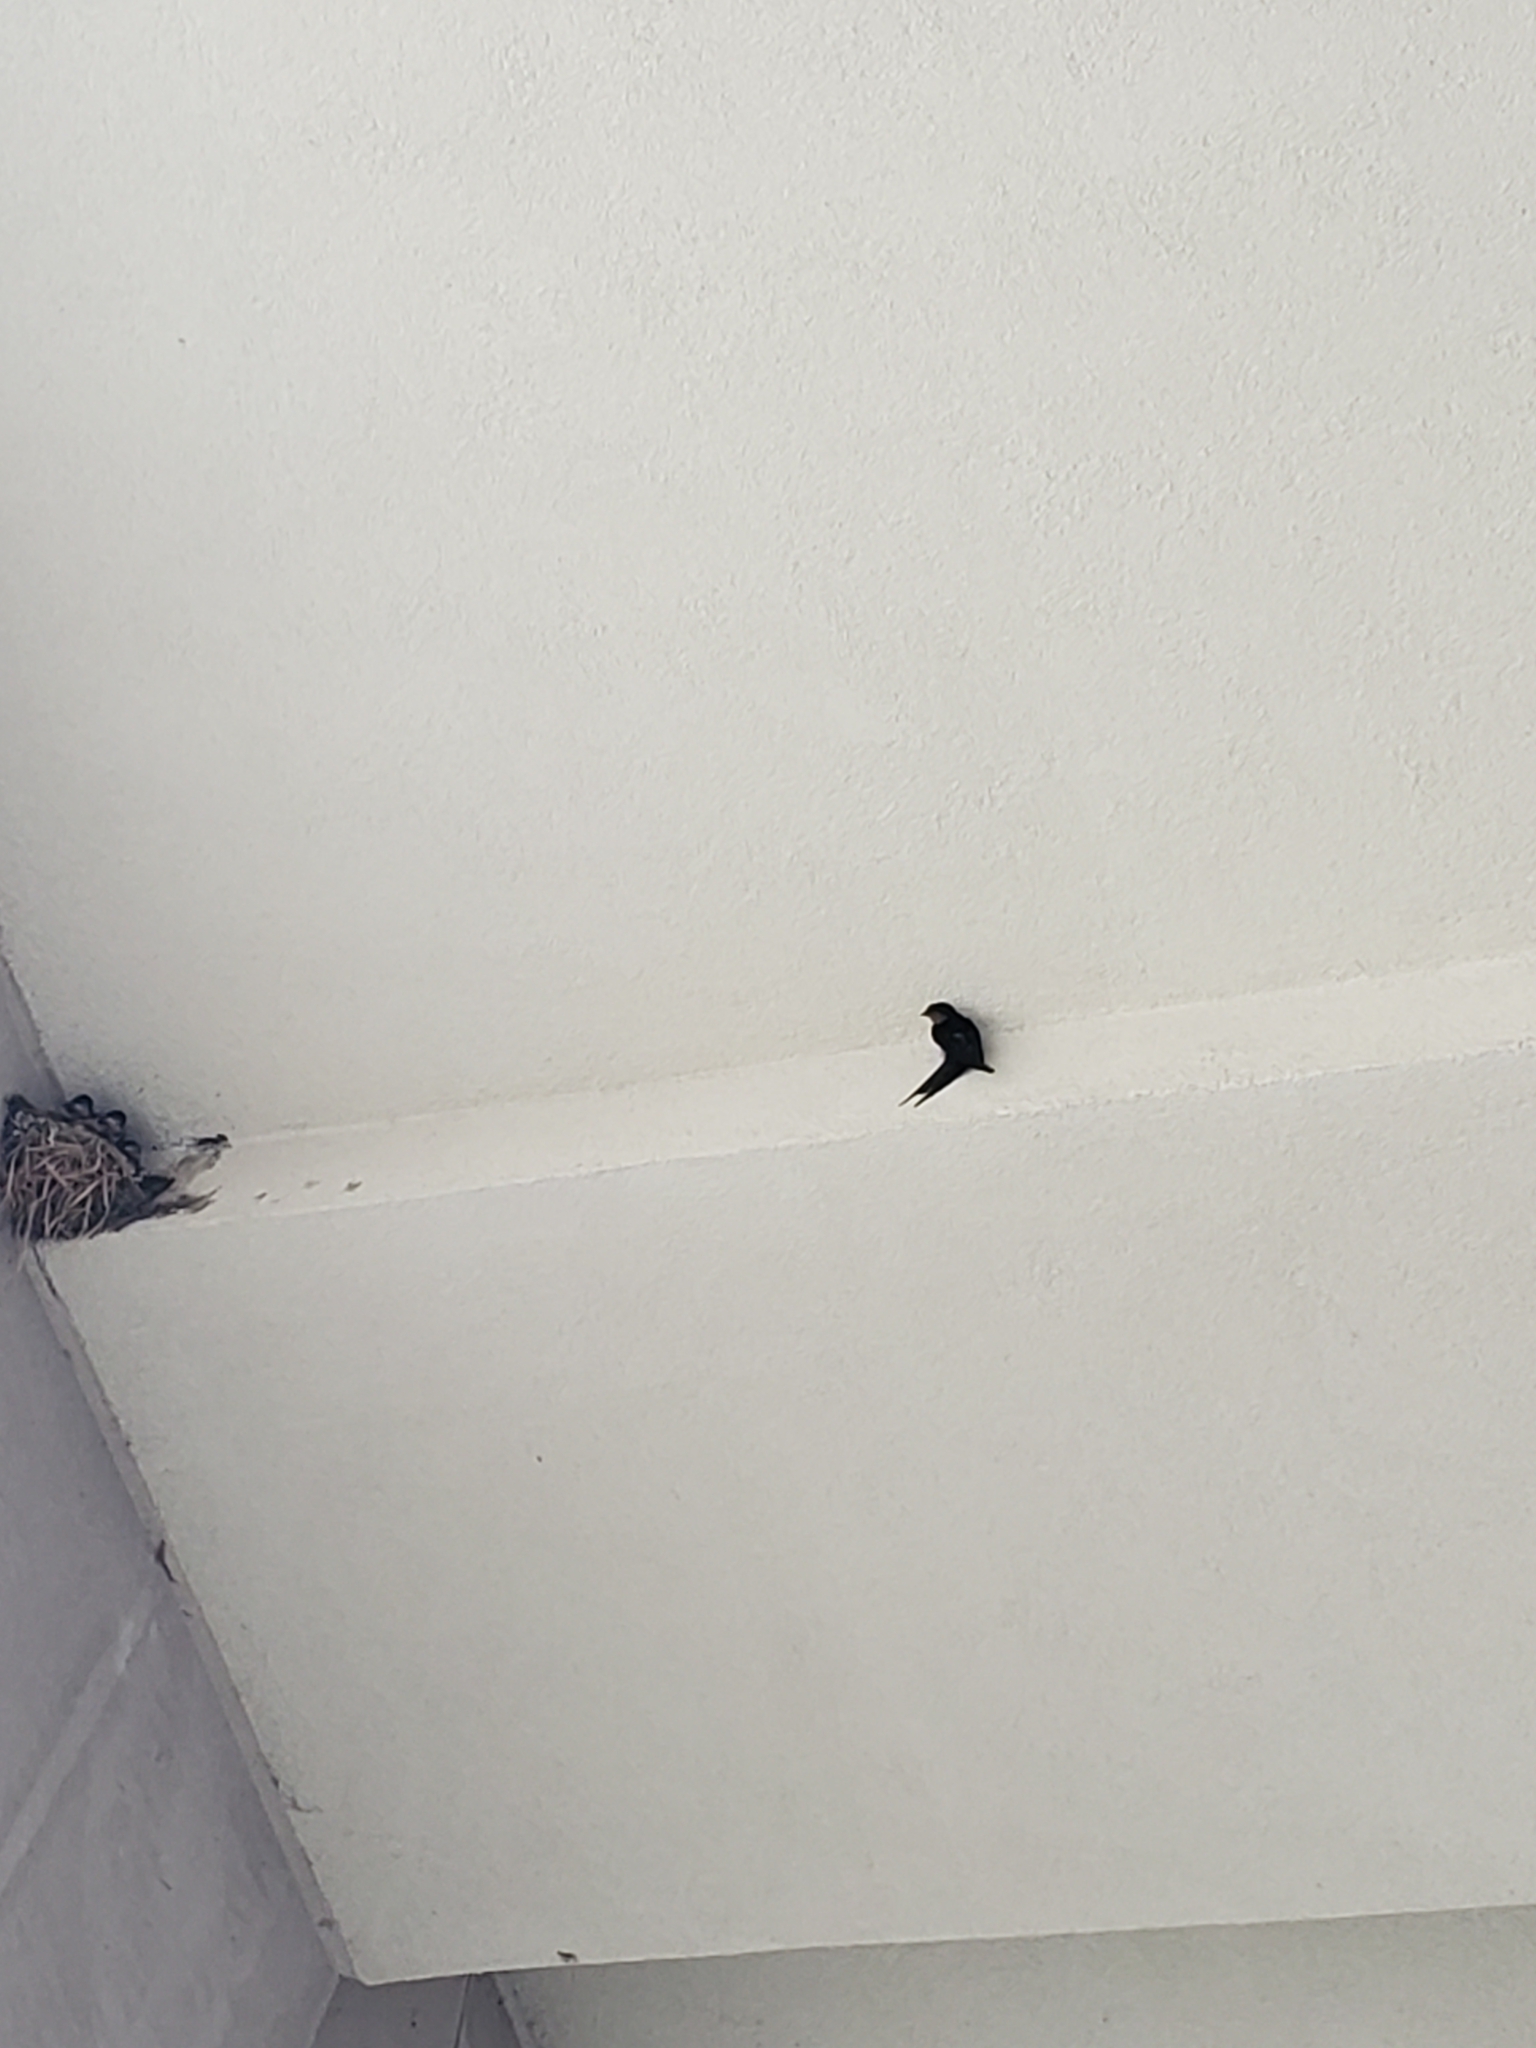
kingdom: Animalia
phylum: Chordata
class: Aves
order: Passeriformes
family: Hirundinidae
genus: Hirundo
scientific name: Hirundo rustica
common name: Barn swallow
